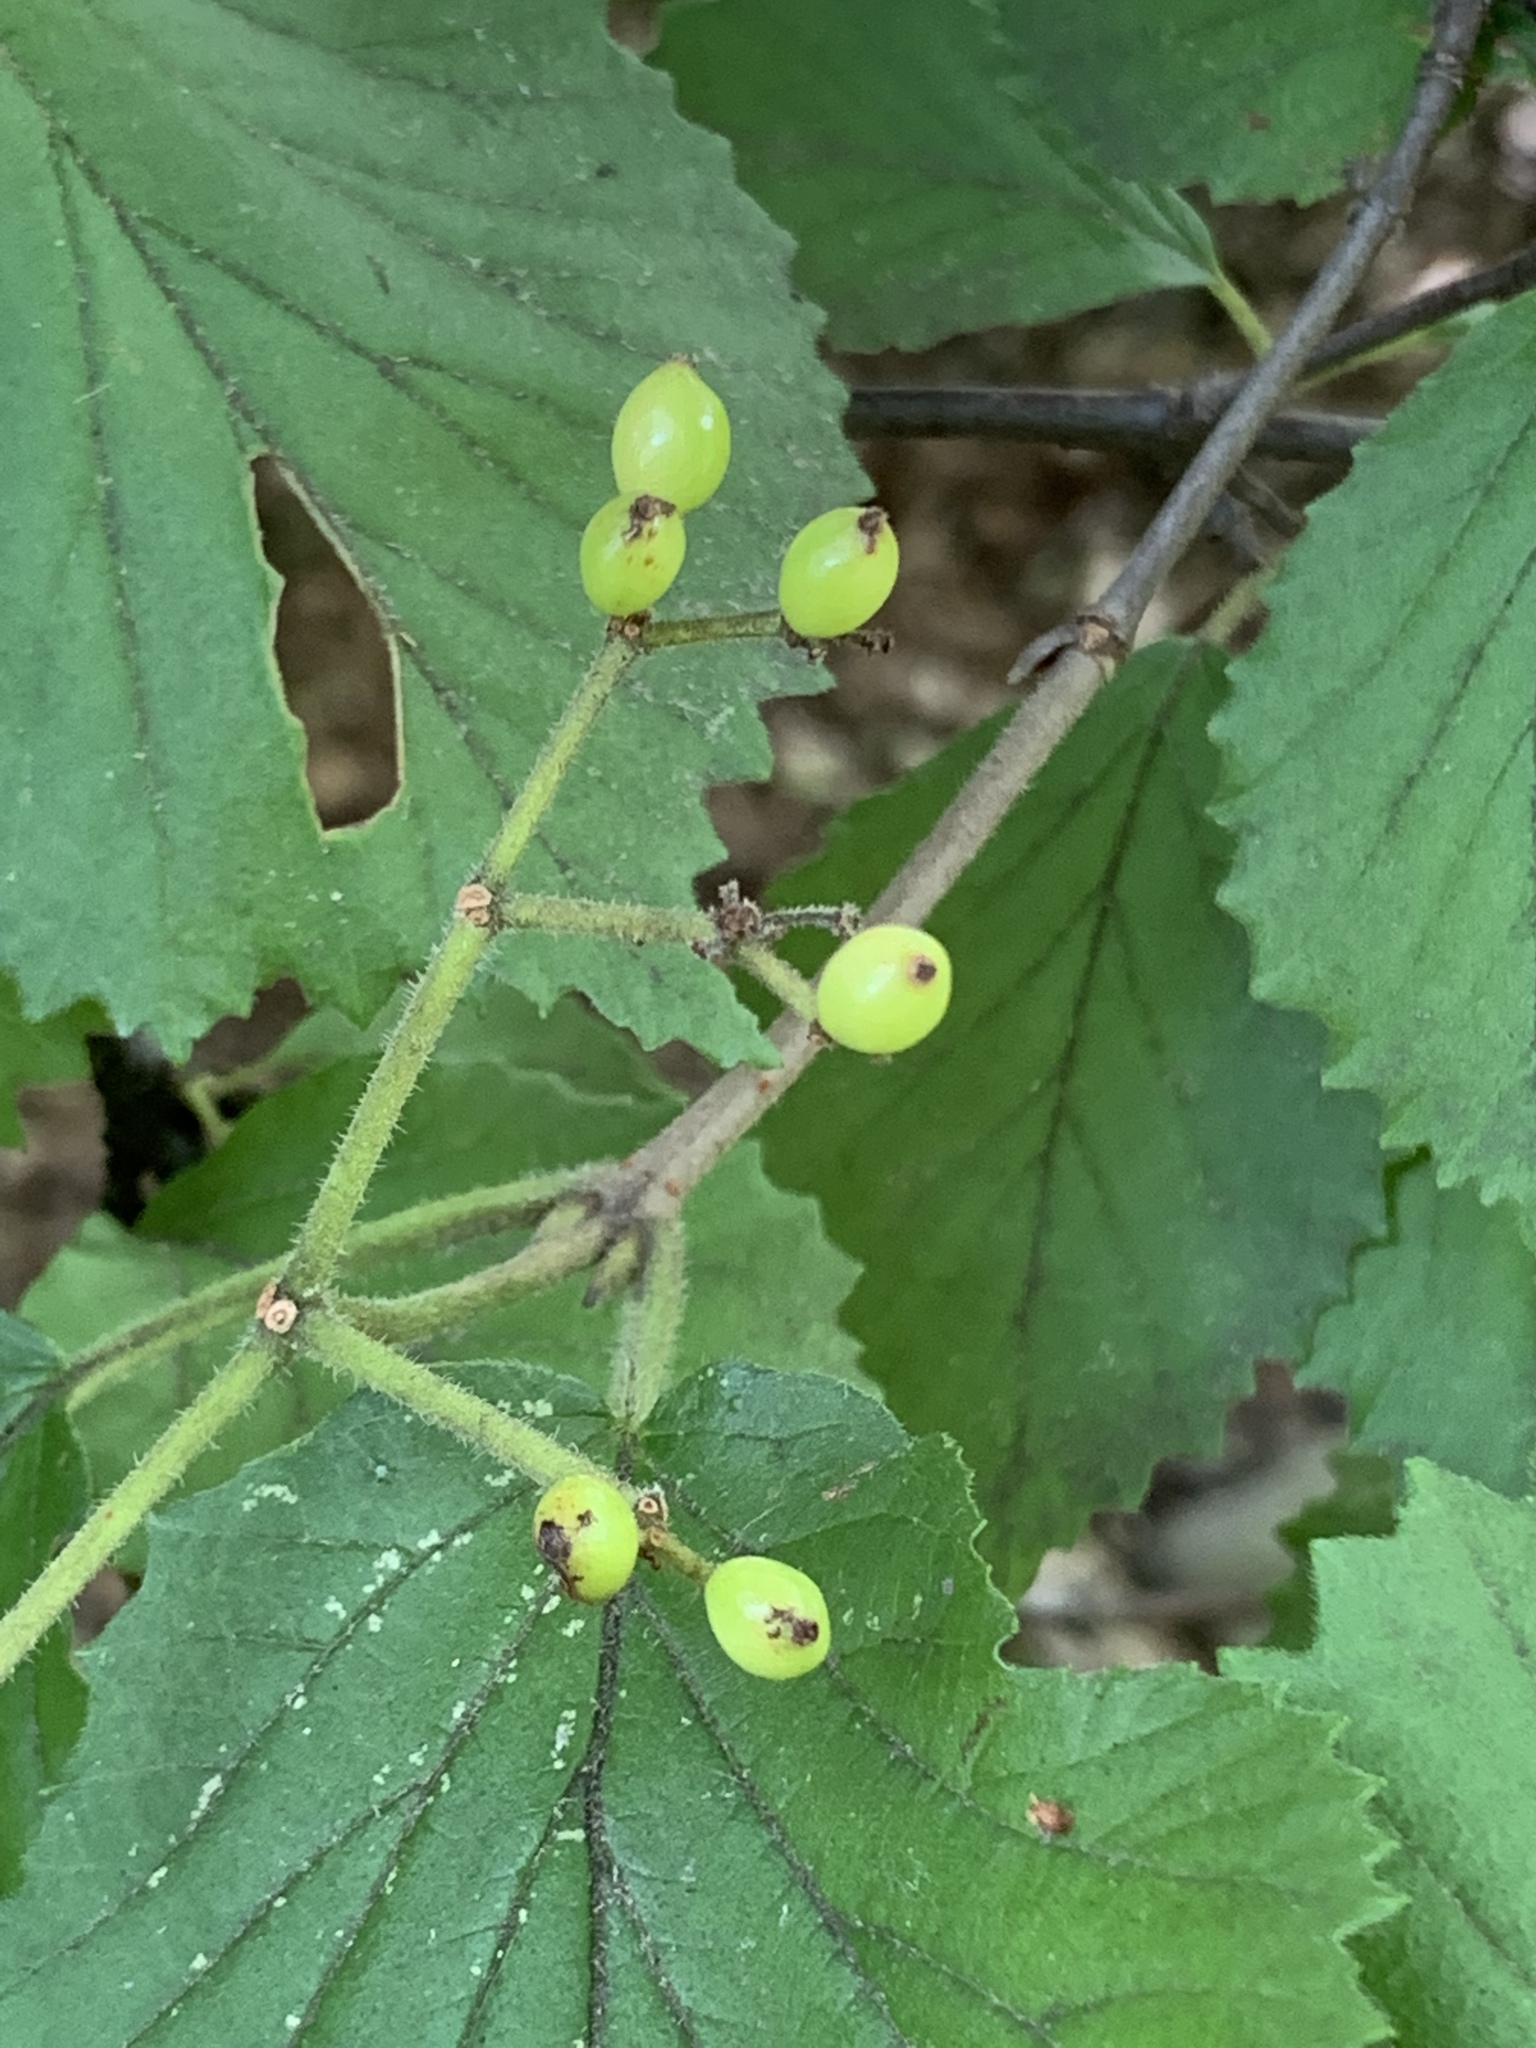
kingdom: Plantae
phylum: Tracheophyta
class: Magnoliopsida
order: Dipsacales
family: Viburnaceae
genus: Viburnum
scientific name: Viburnum dilatatum
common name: Linden arrowwood
